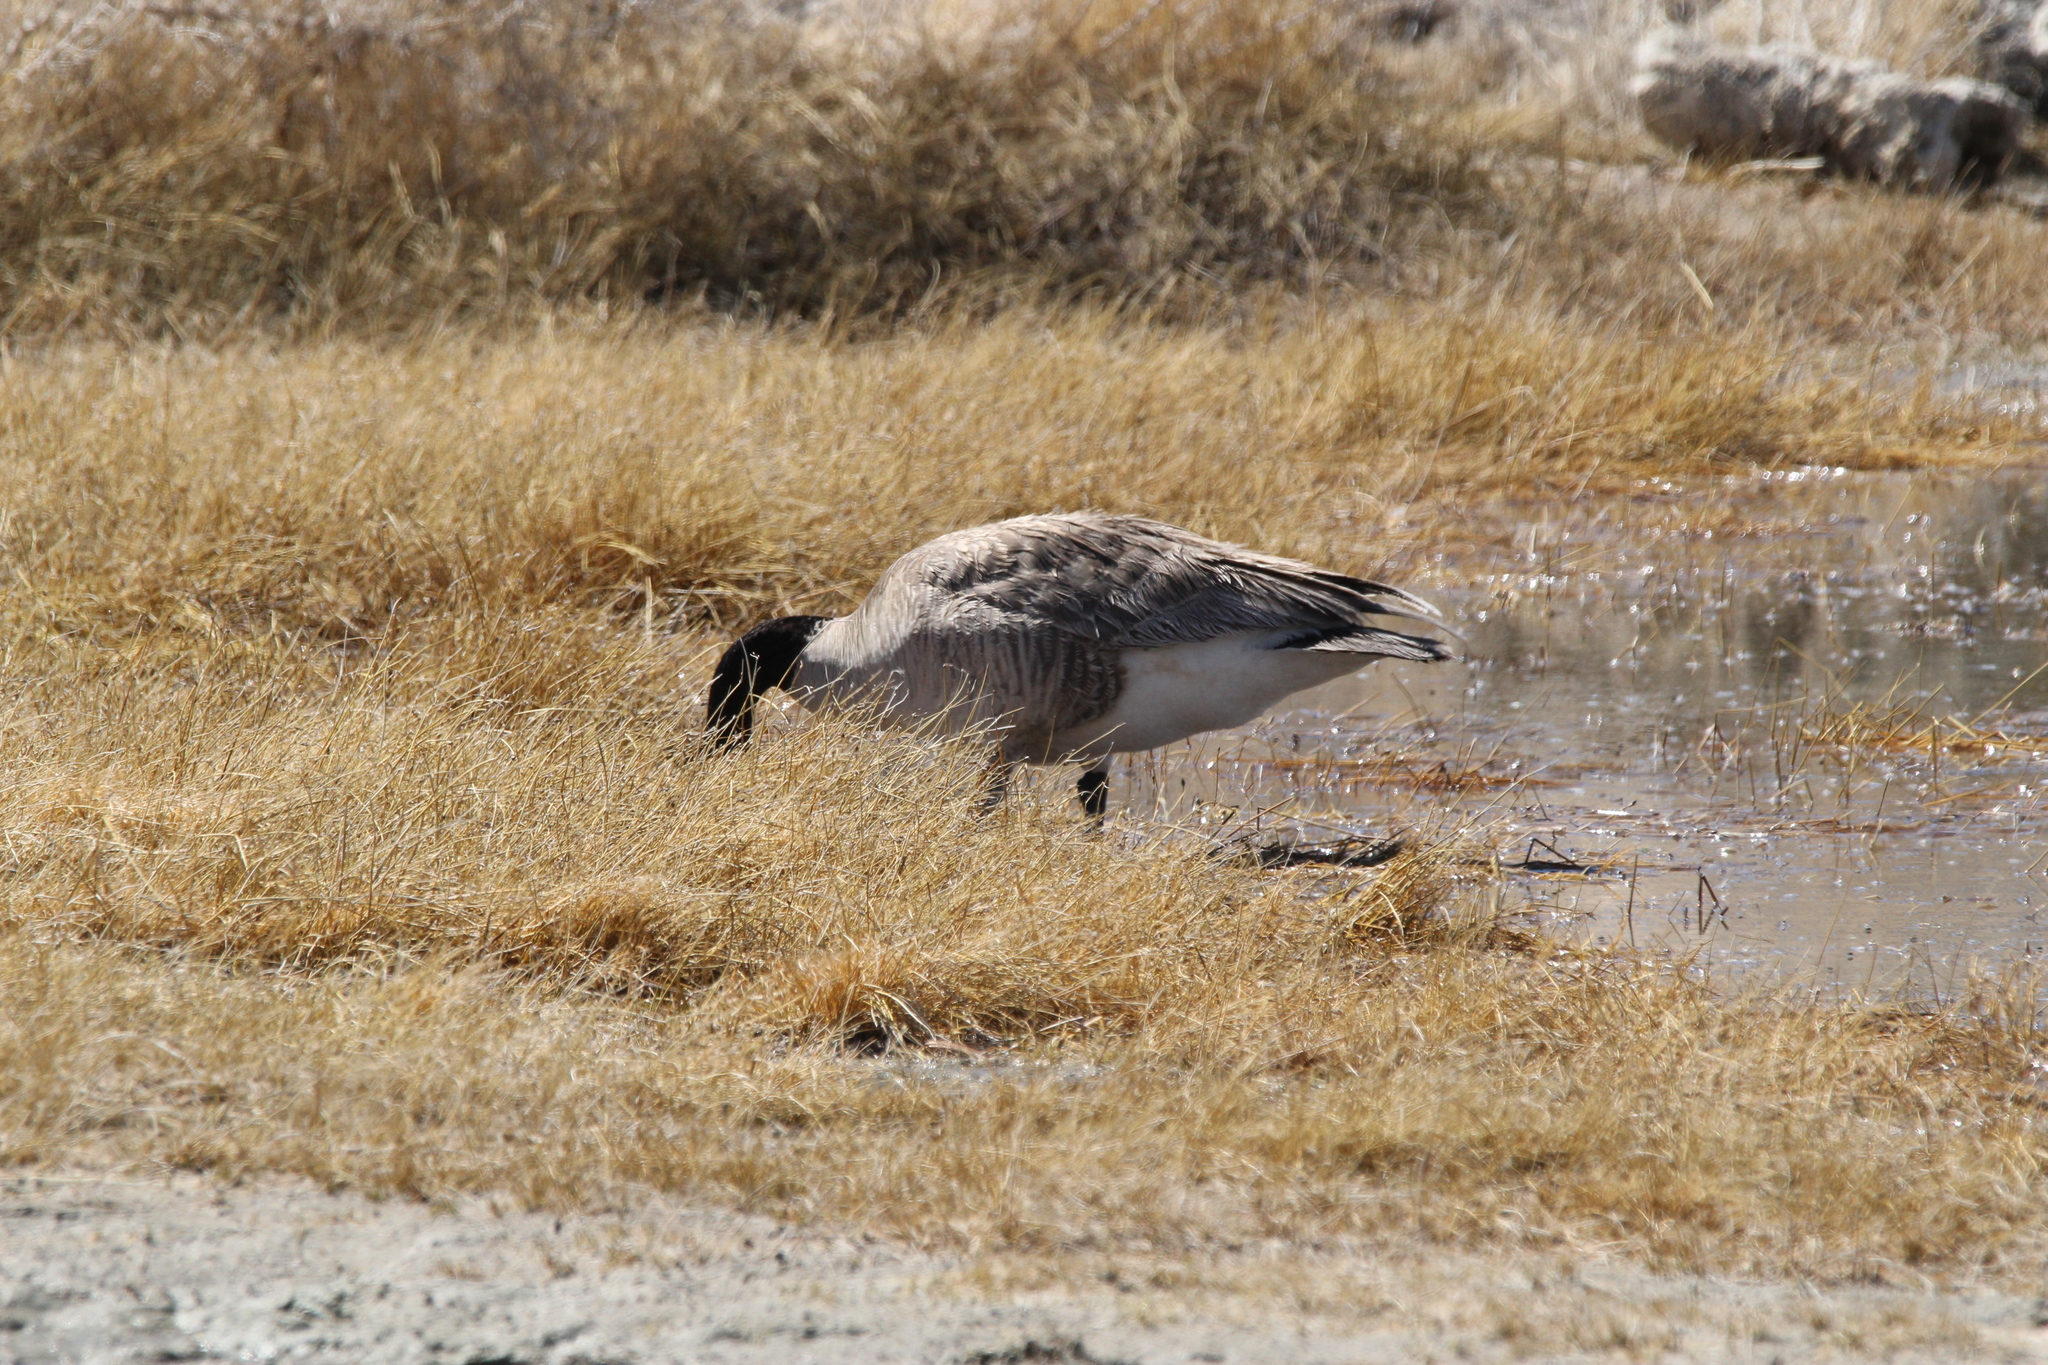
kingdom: Animalia
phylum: Chordata
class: Aves
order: Anseriformes
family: Anatidae
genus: Branta
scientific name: Branta canadensis
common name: Canada goose
